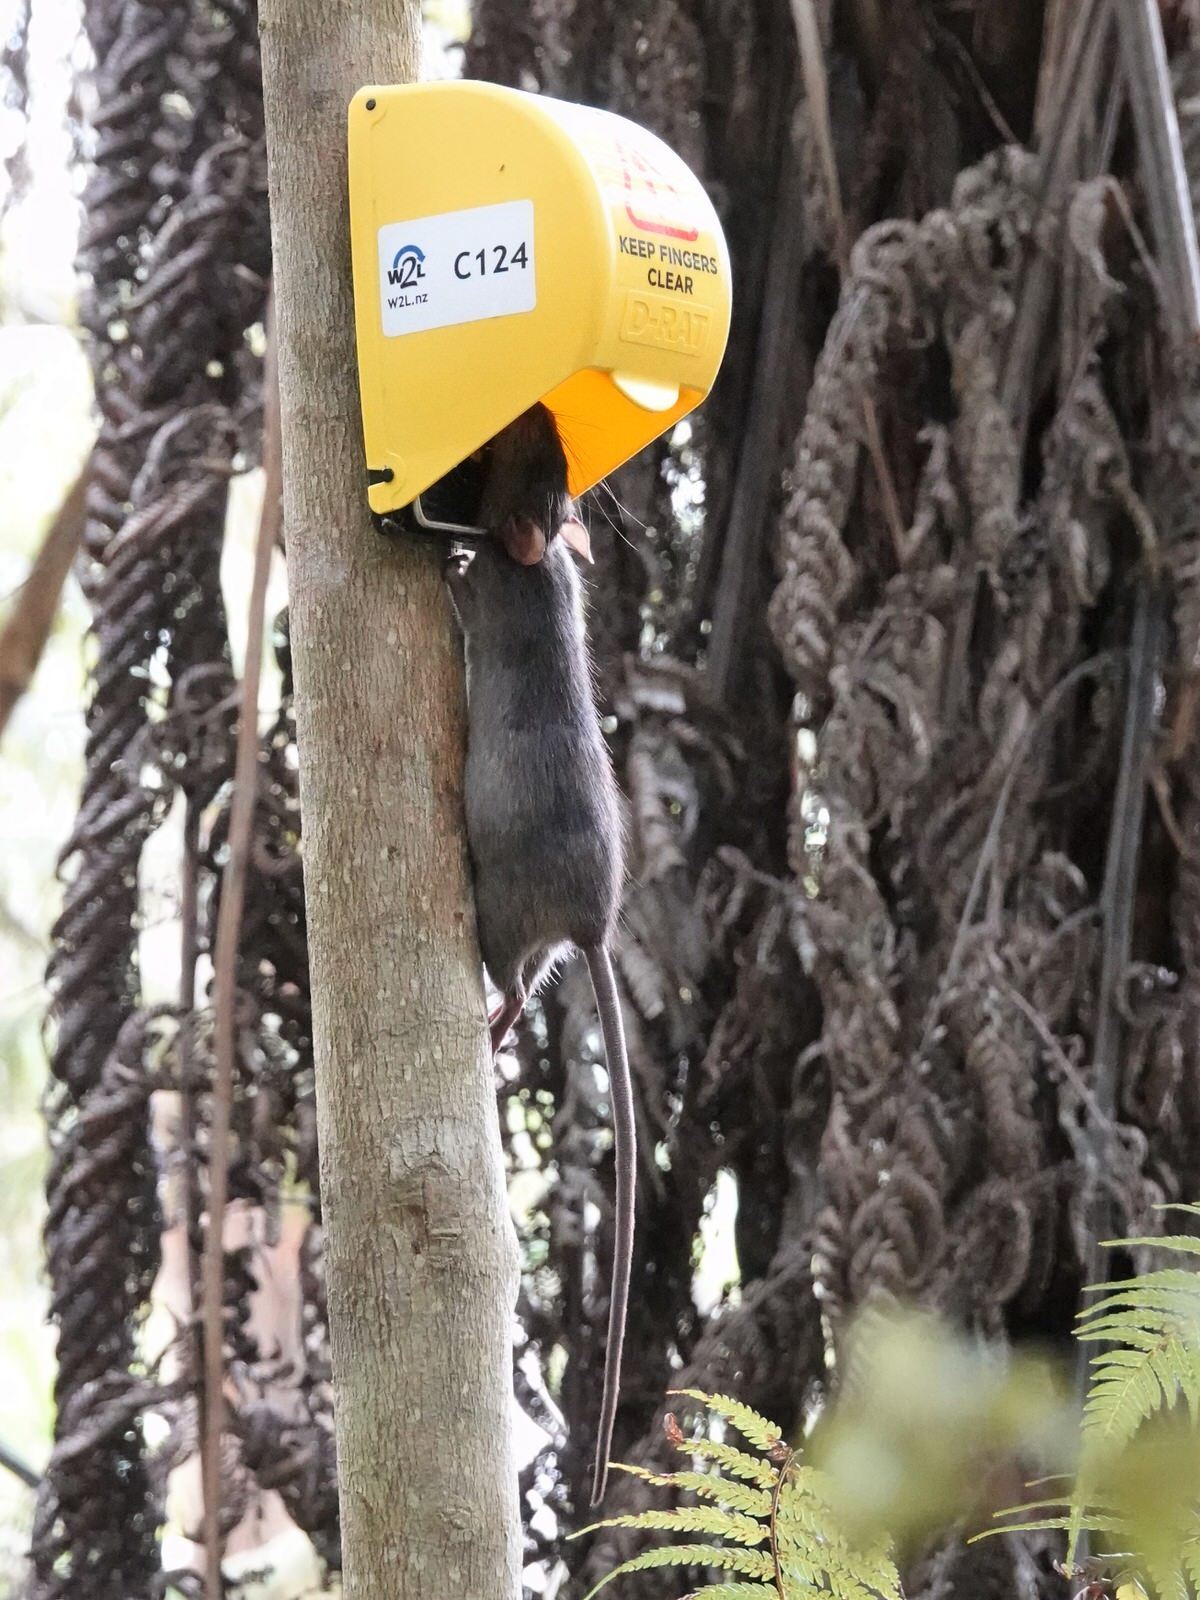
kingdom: Animalia
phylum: Chordata
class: Mammalia
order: Rodentia
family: Muridae
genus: Rattus
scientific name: Rattus rattus
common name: Black rat
